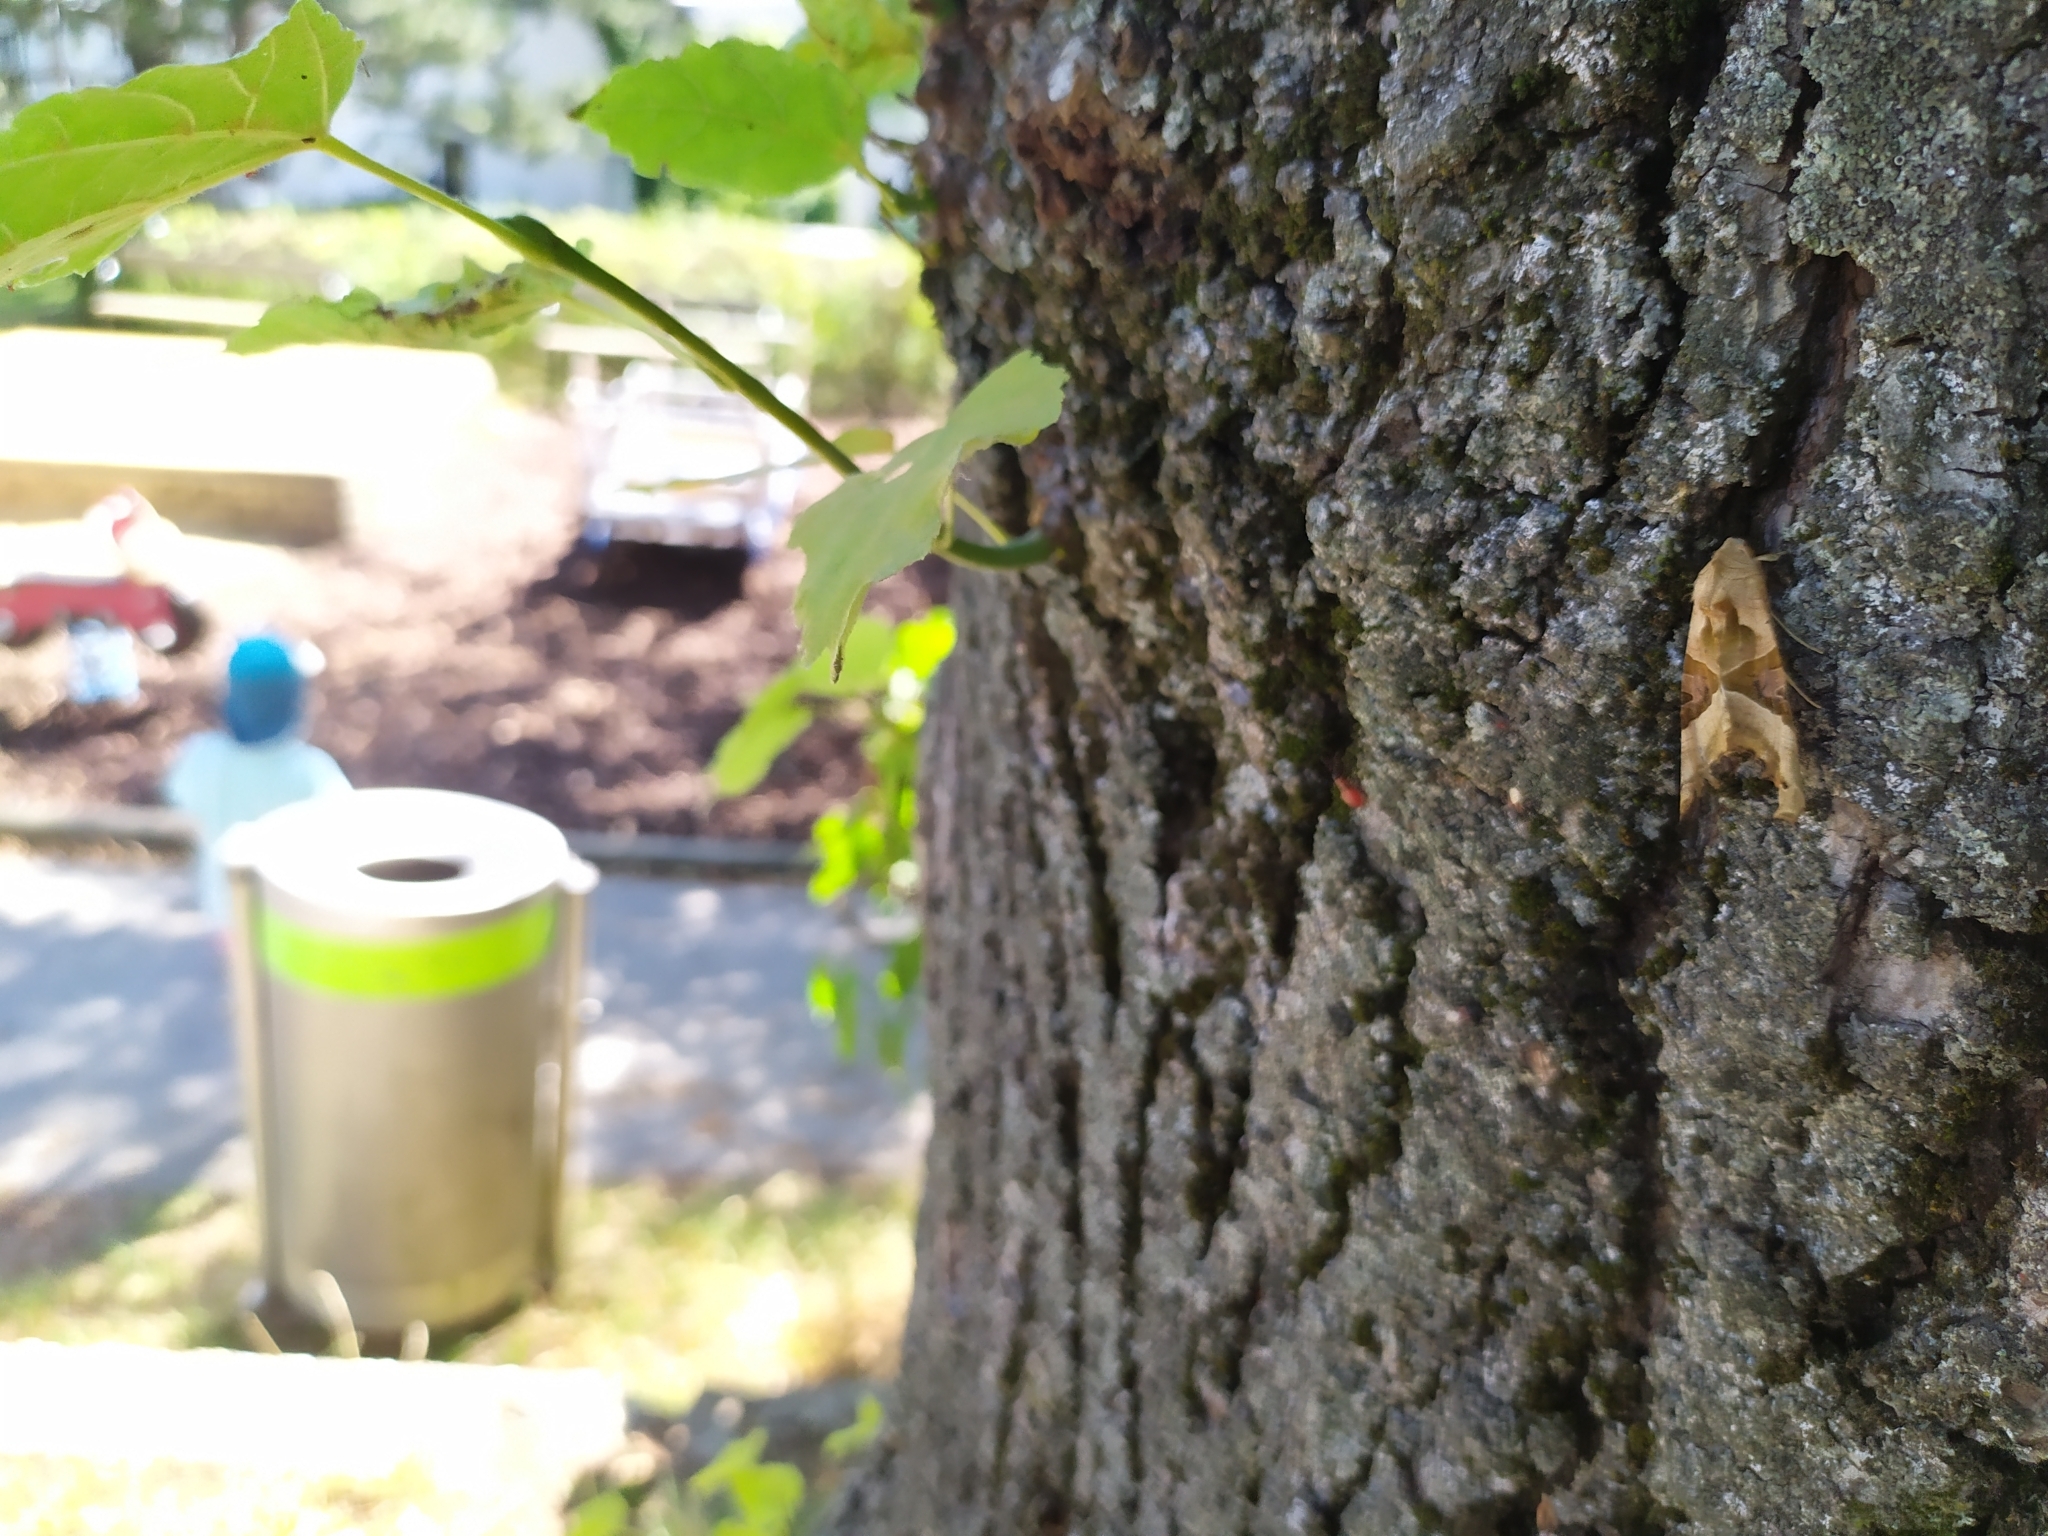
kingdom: Animalia
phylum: Arthropoda
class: Insecta
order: Lepidoptera
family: Noctuidae
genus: Phlogophora
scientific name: Phlogophora meticulosa
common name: Angle shades
